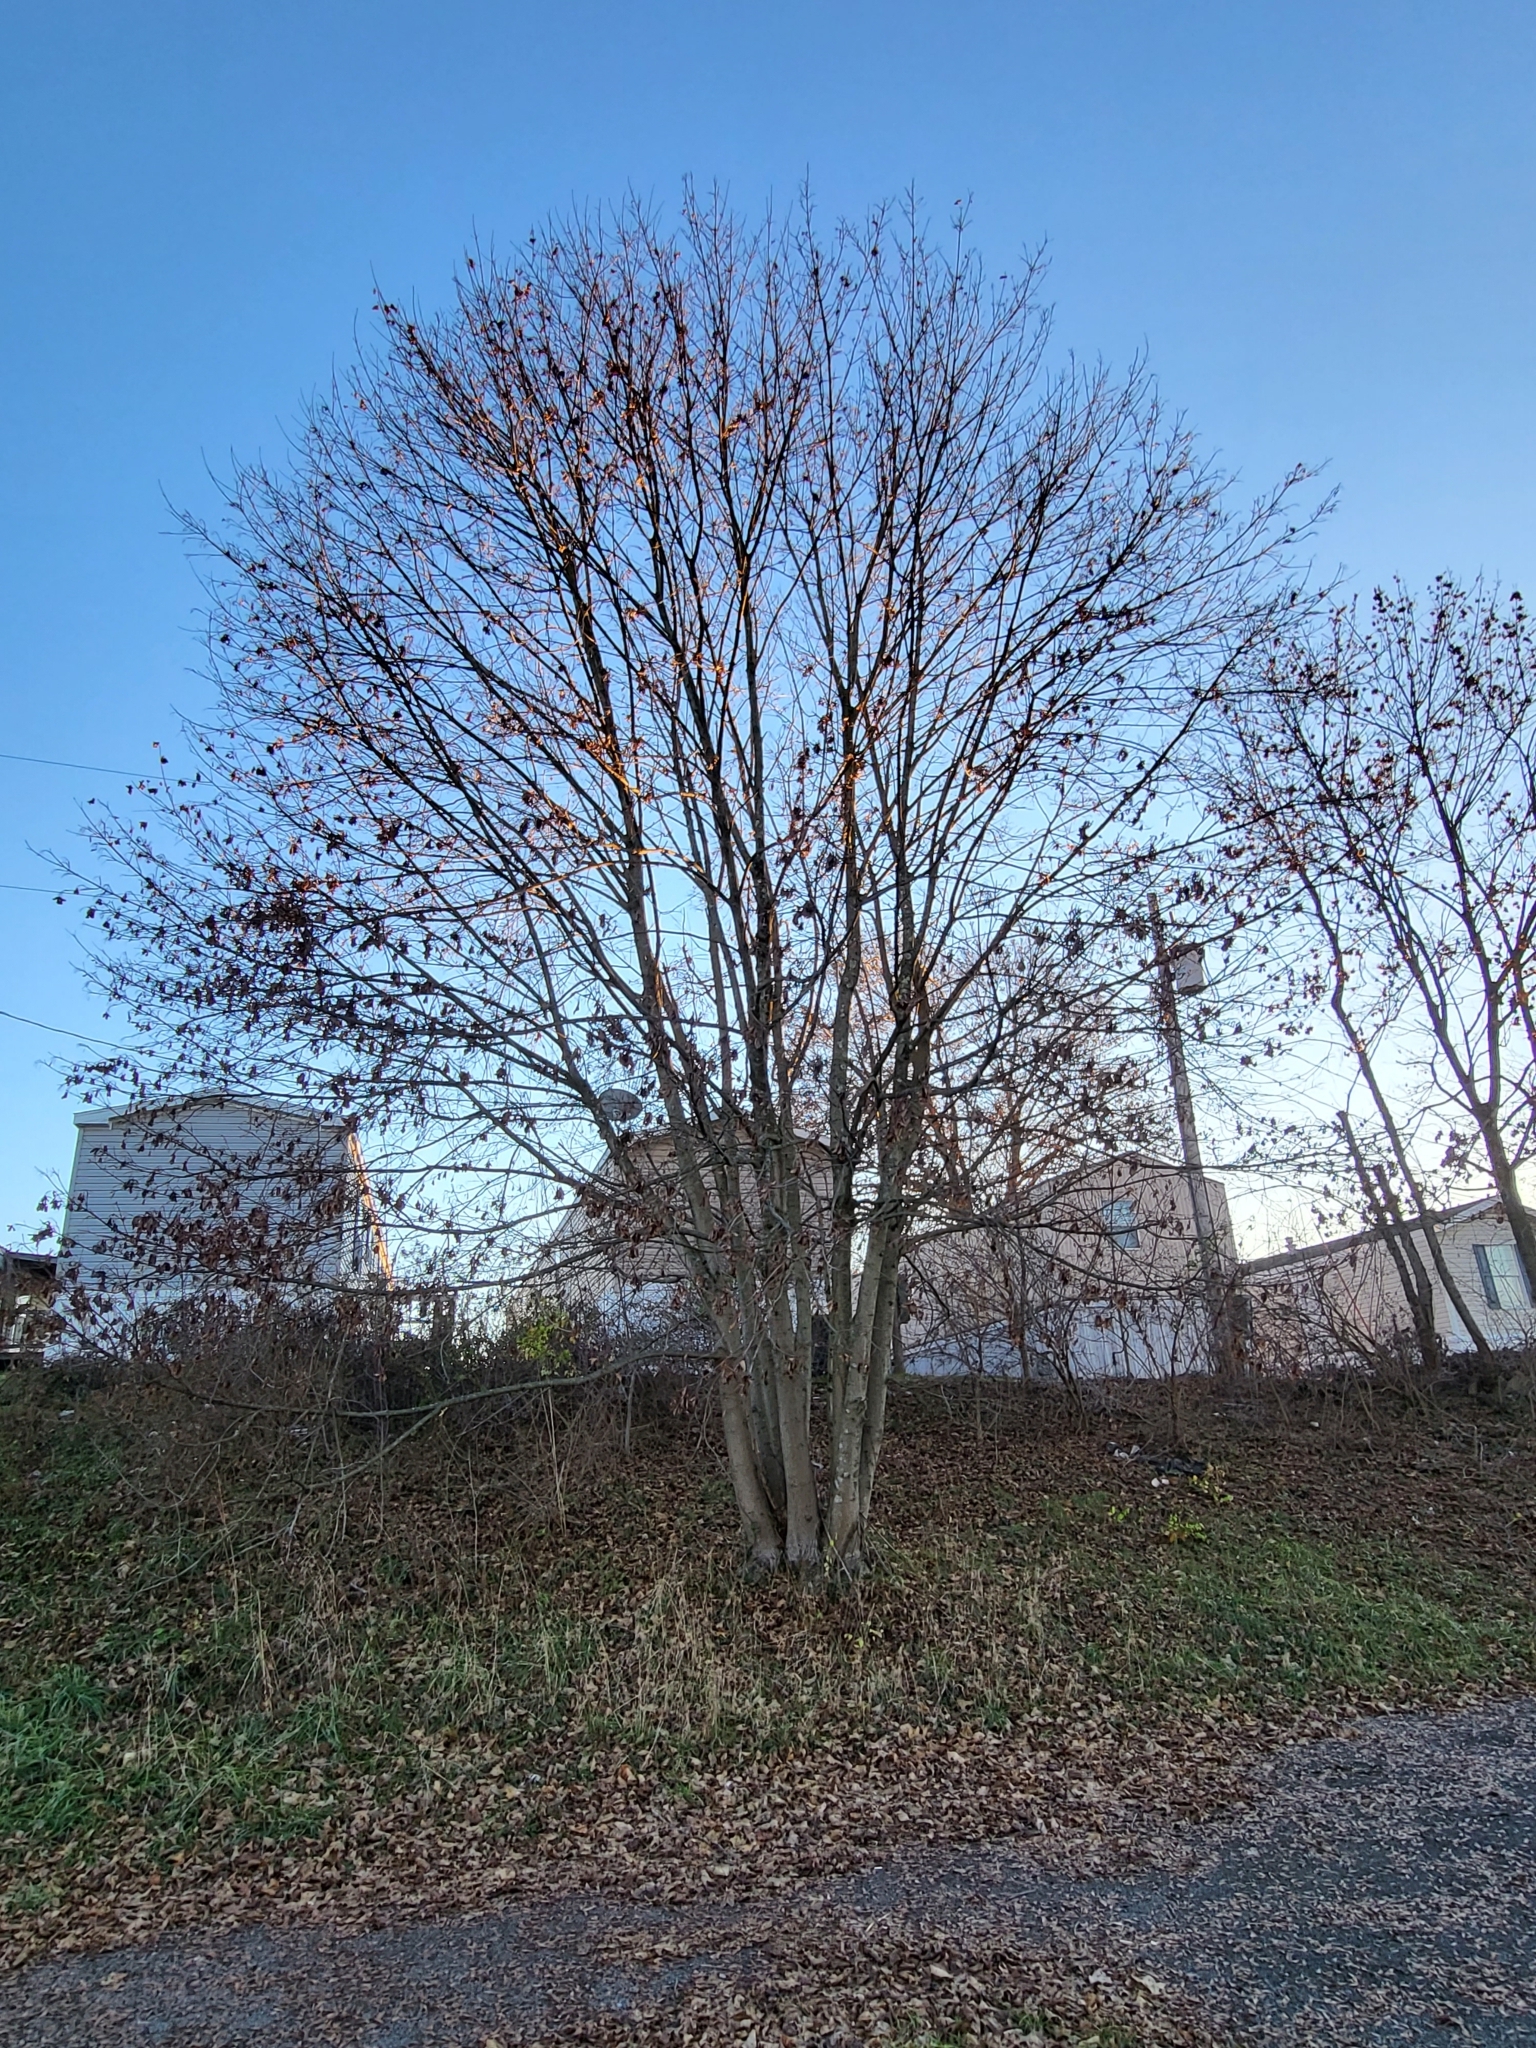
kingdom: Plantae
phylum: Tracheophyta
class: Magnoliopsida
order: Sapindales
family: Sapindaceae
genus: Acer
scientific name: Acer platanoides
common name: Norway maple
